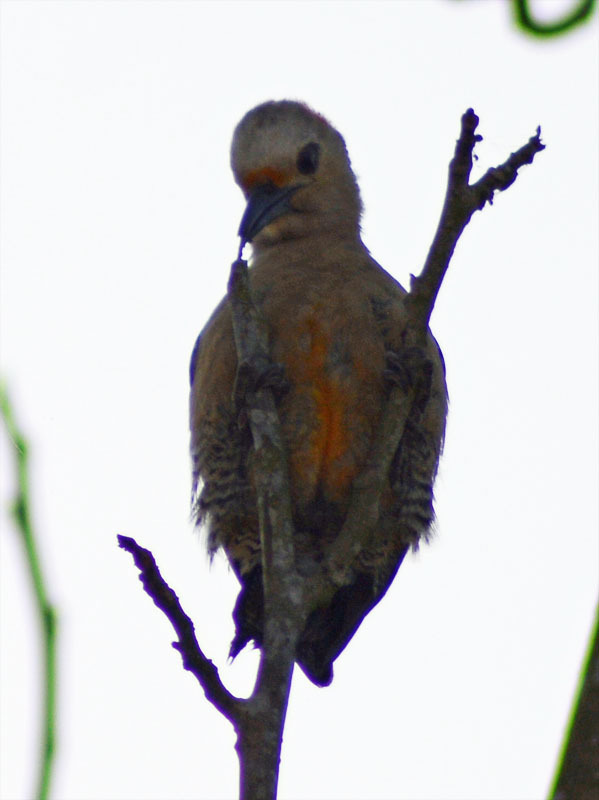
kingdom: Animalia
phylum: Chordata
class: Aves
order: Piciformes
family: Picidae
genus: Melanerpes
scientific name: Melanerpes aurifrons
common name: Golden-fronted woodpecker
